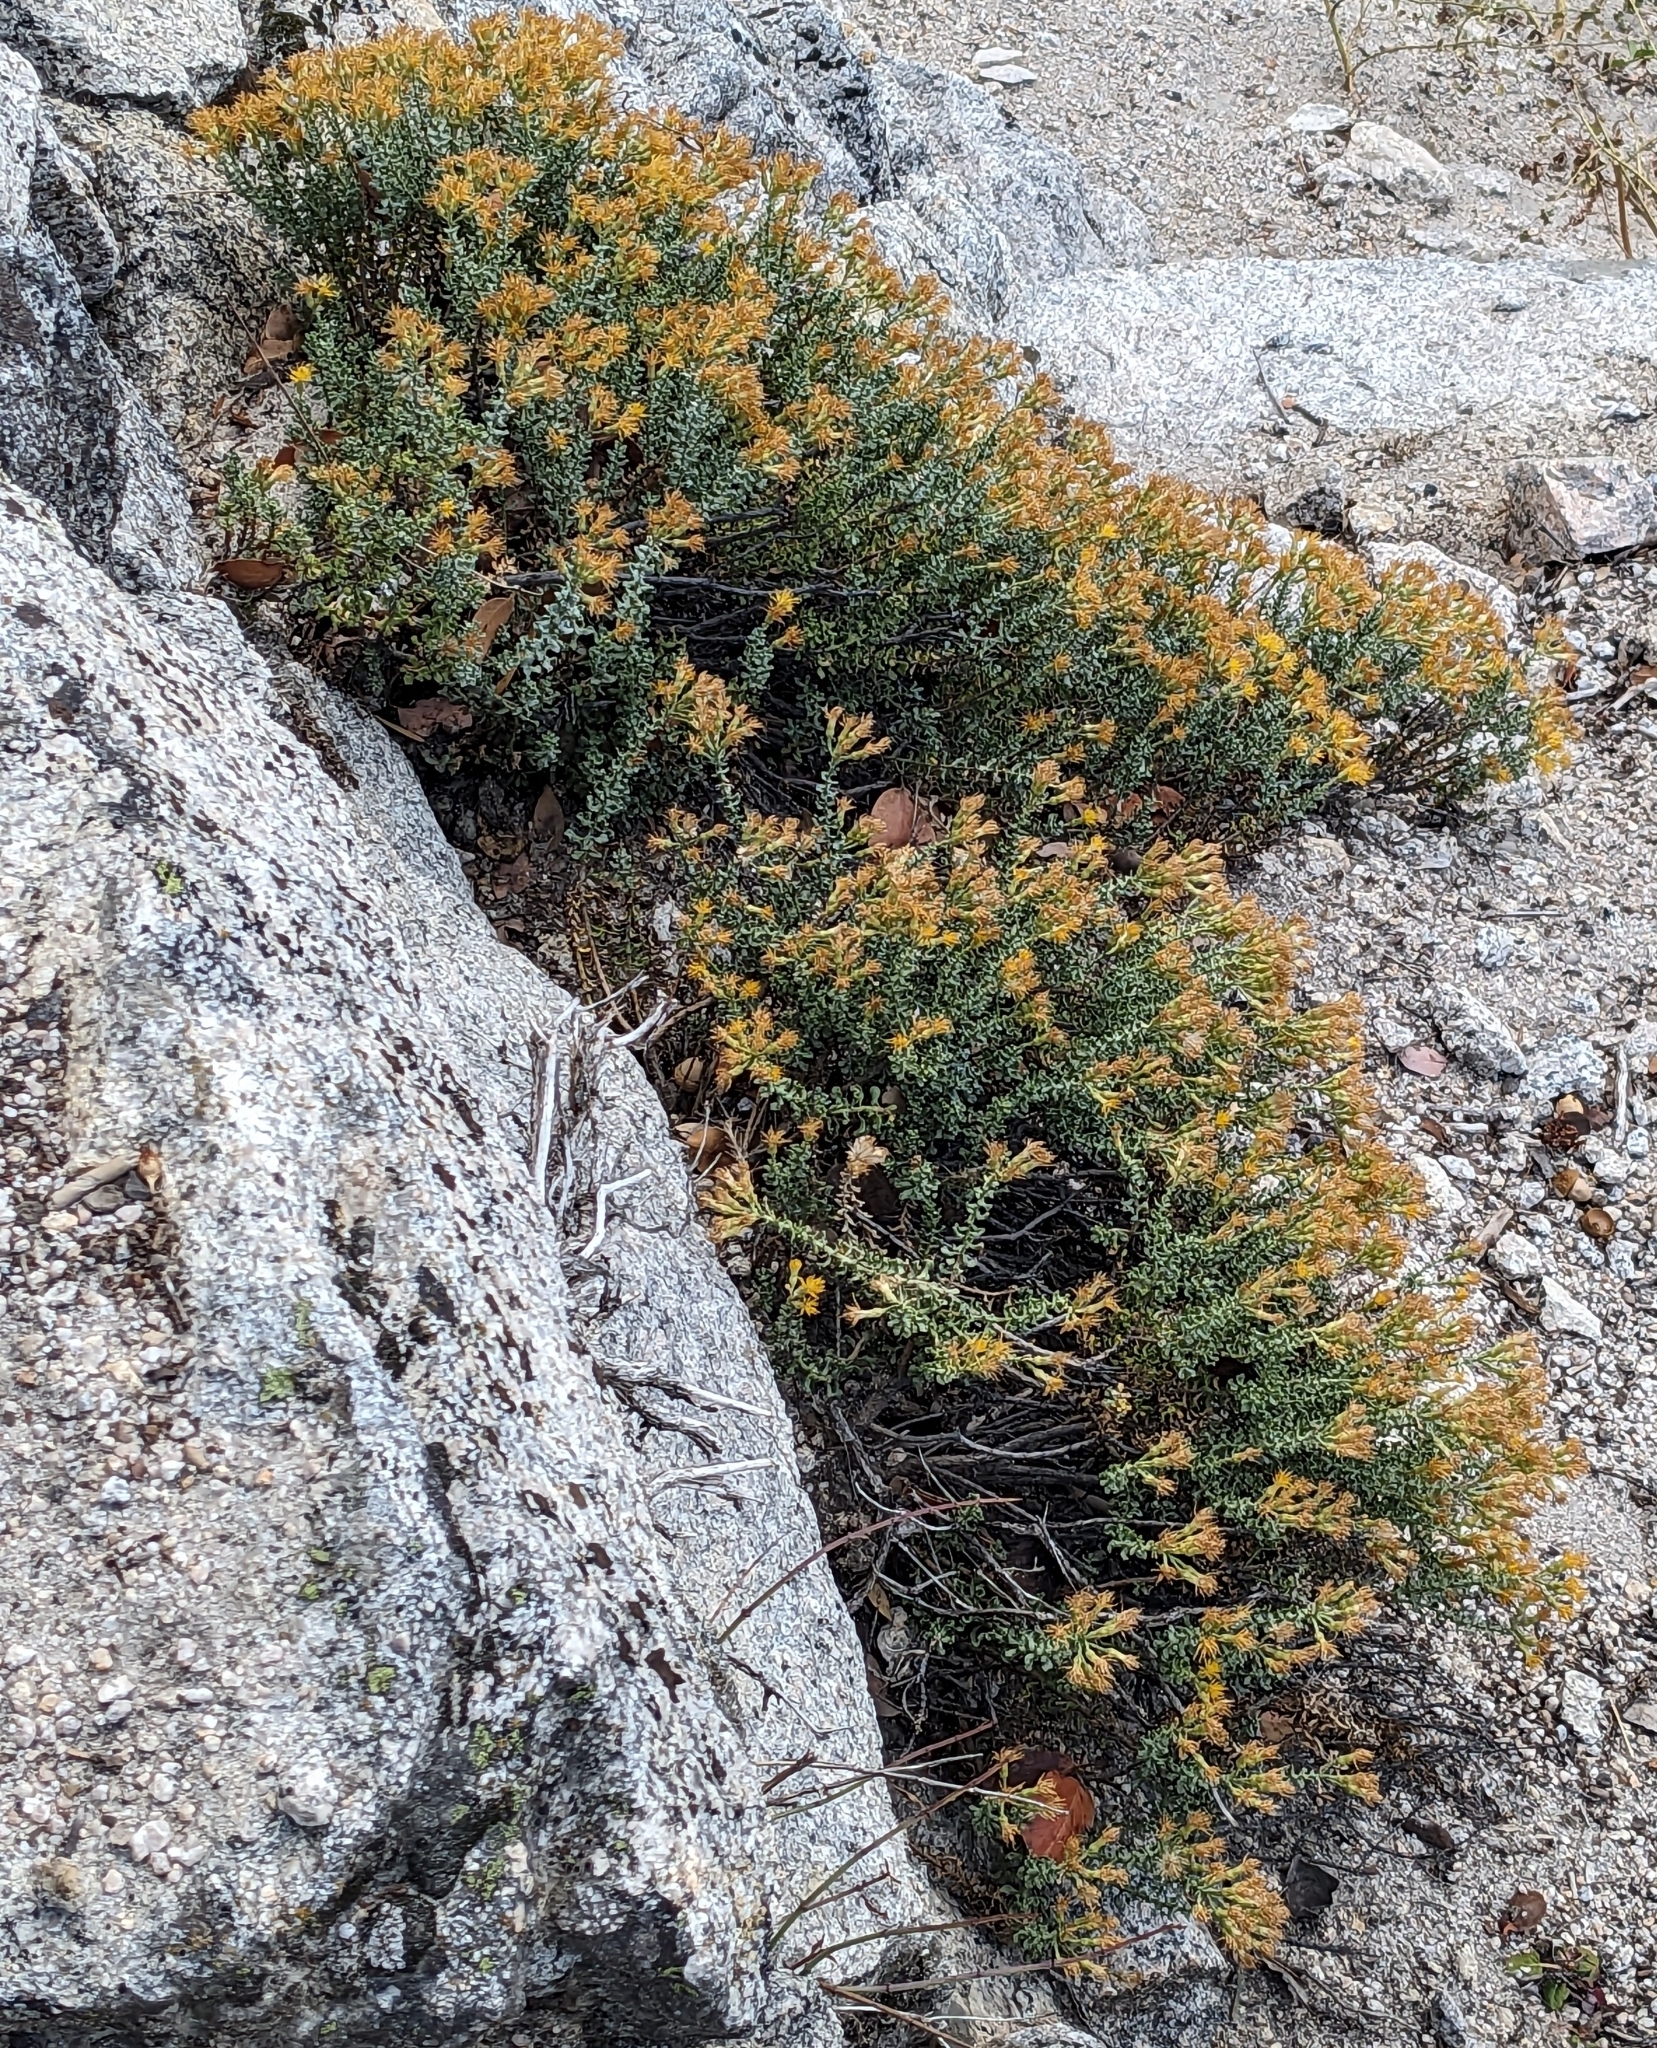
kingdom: Plantae
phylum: Tracheophyta
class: Magnoliopsida
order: Asterales
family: Asteraceae
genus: Ericameria
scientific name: Ericameria cuneata
